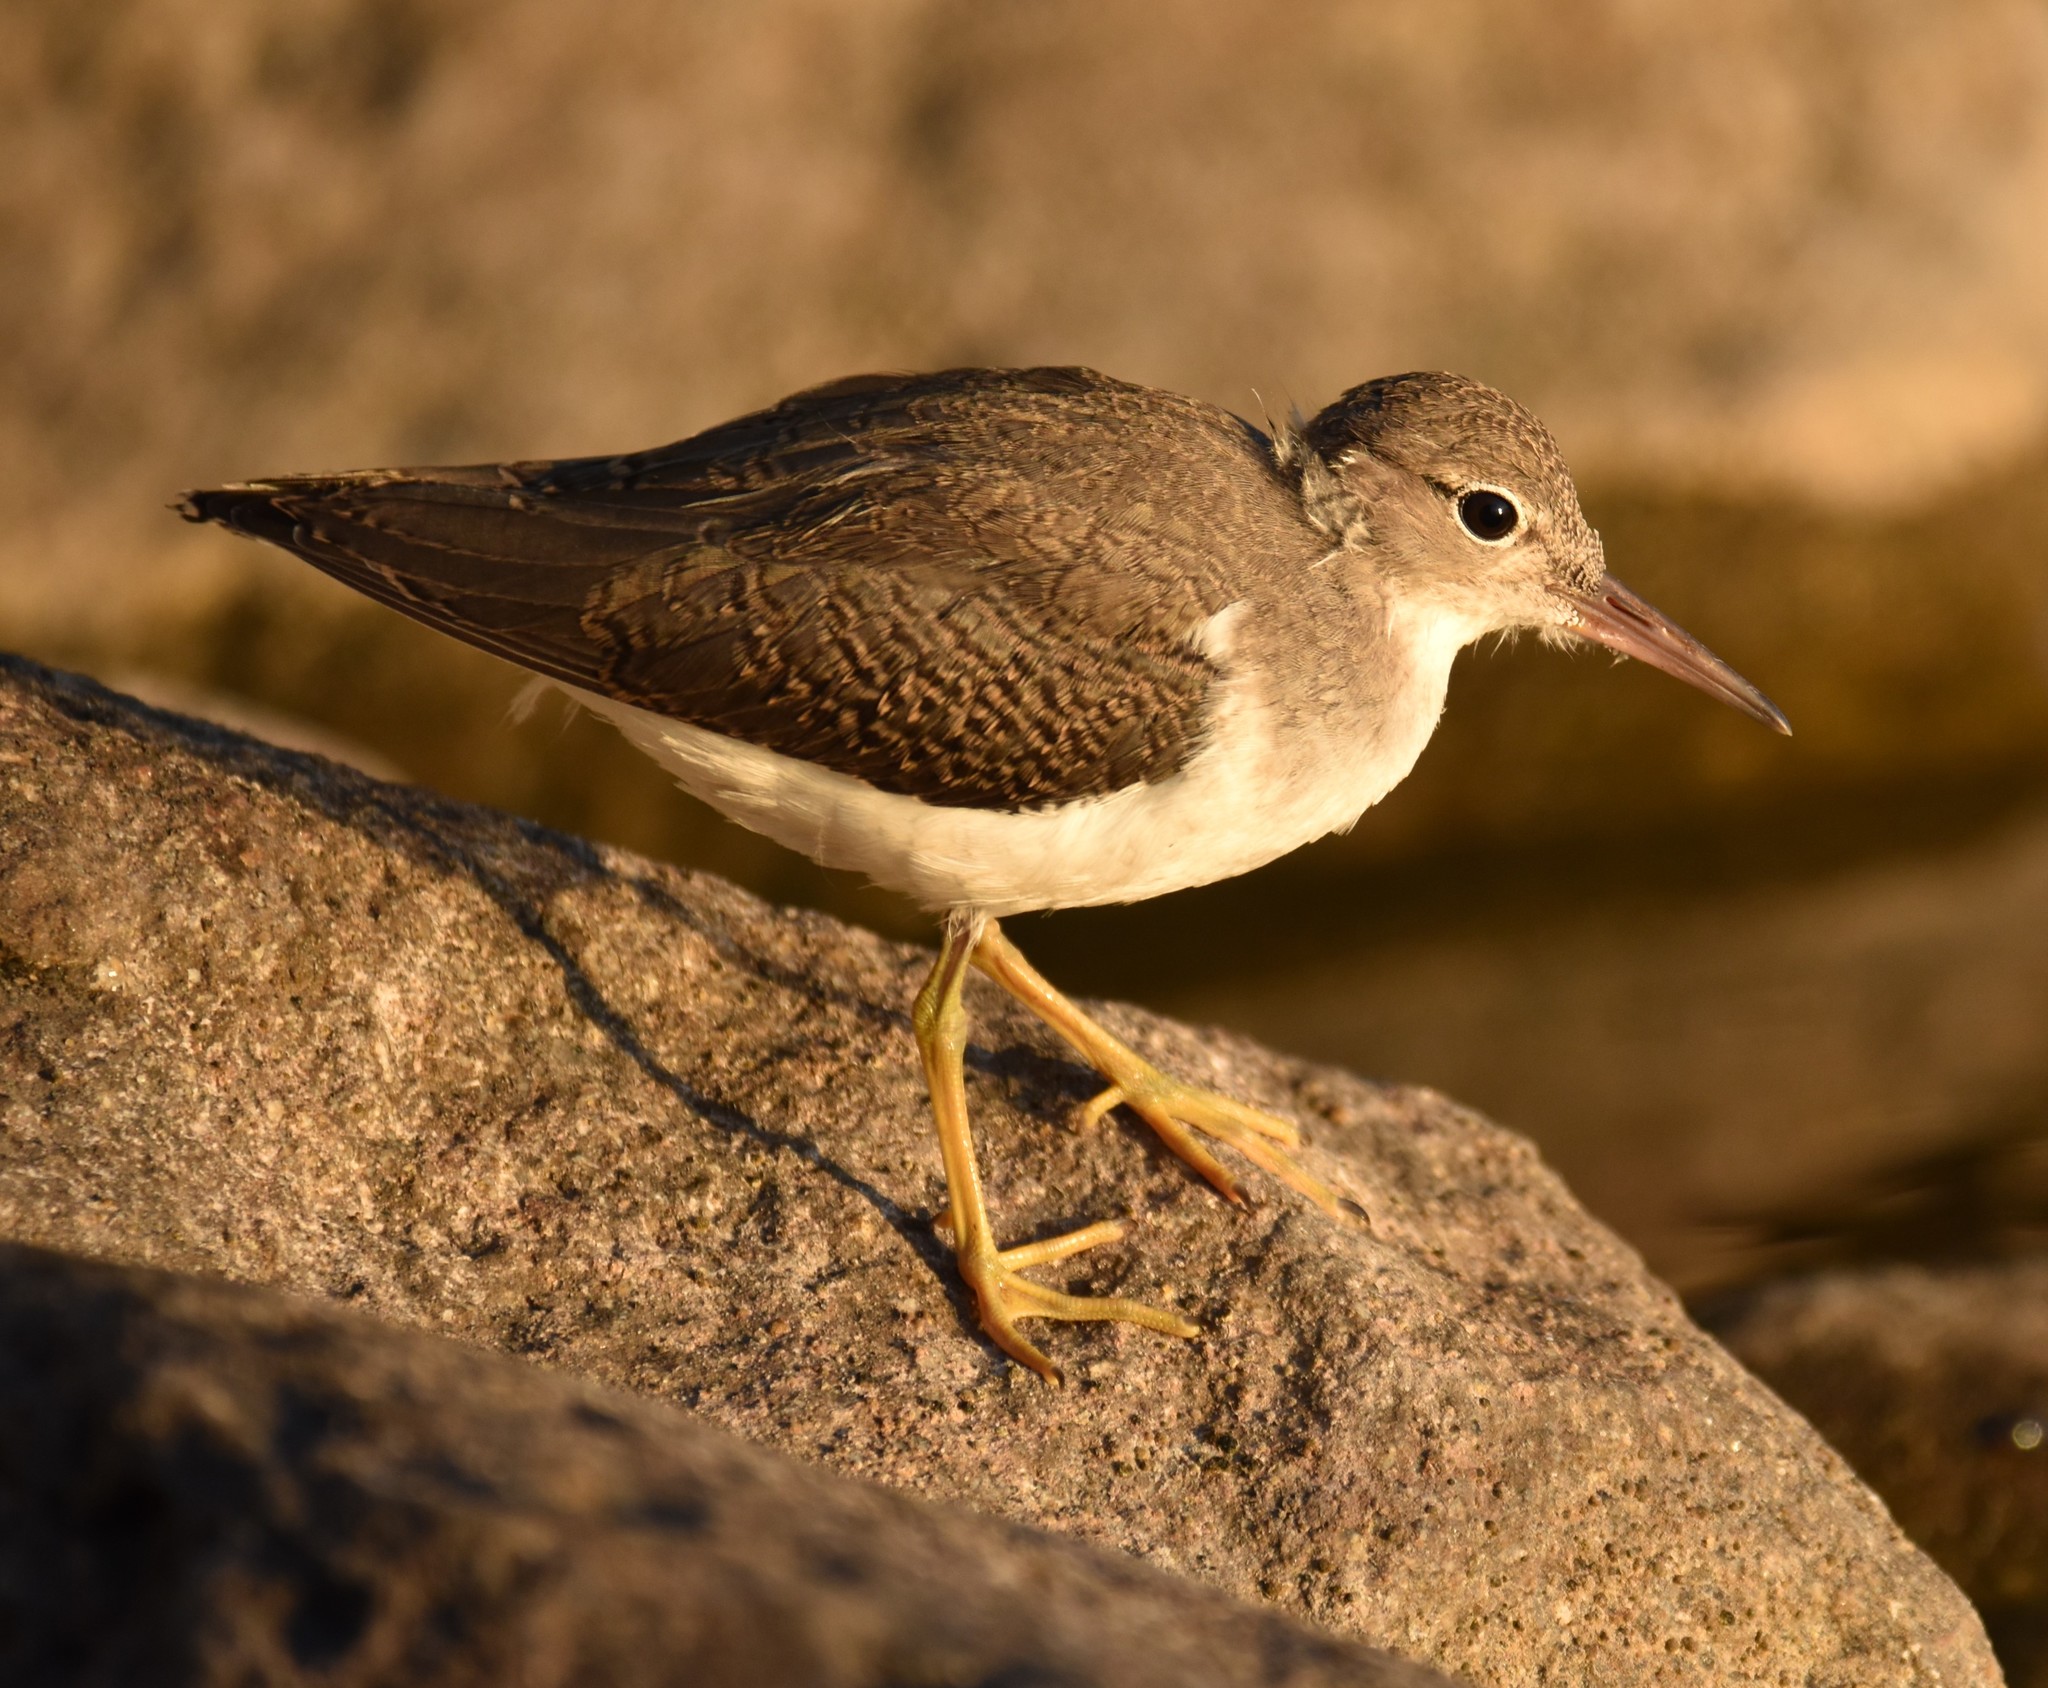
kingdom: Animalia
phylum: Chordata
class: Aves
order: Charadriiformes
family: Scolopacidae
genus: Actitis
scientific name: Actitis macularius
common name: Spotted sandpiper
